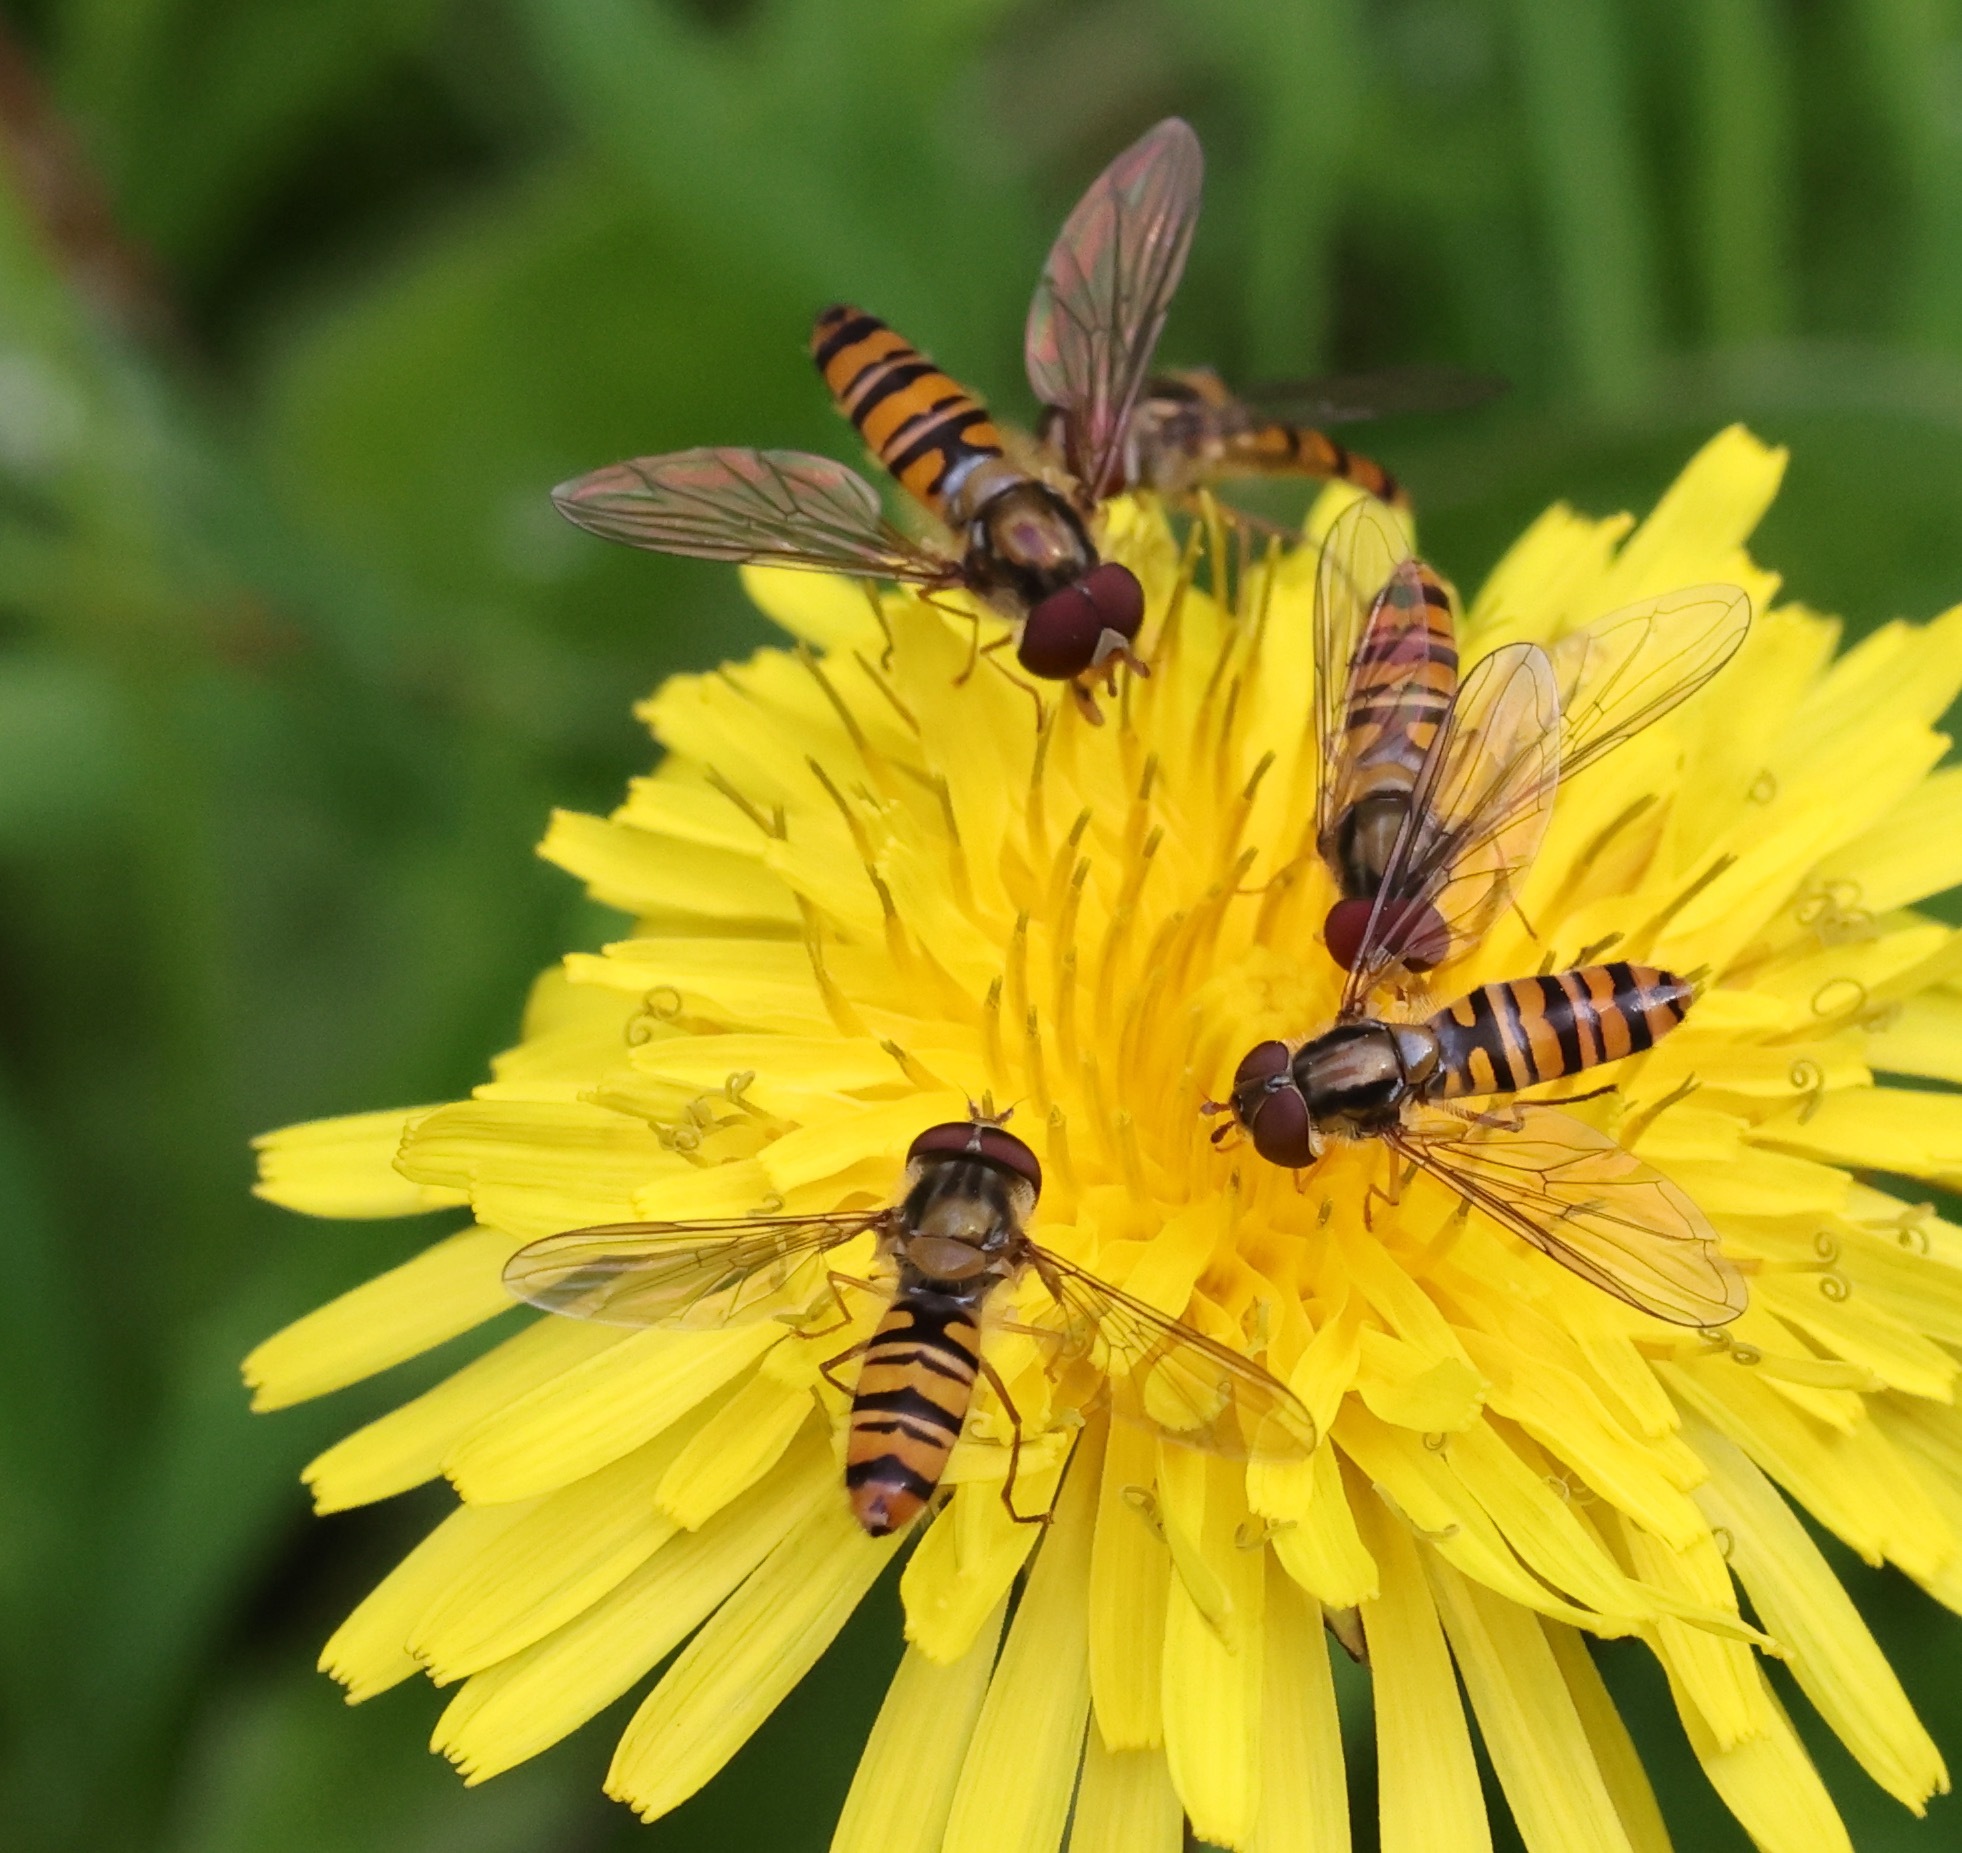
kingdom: Animalia
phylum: Arthropoda
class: Insecta
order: Diptera
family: Syrphidae
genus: Episyrphus
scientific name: Episyrphus balteatus
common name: Marmalade hoverfly
